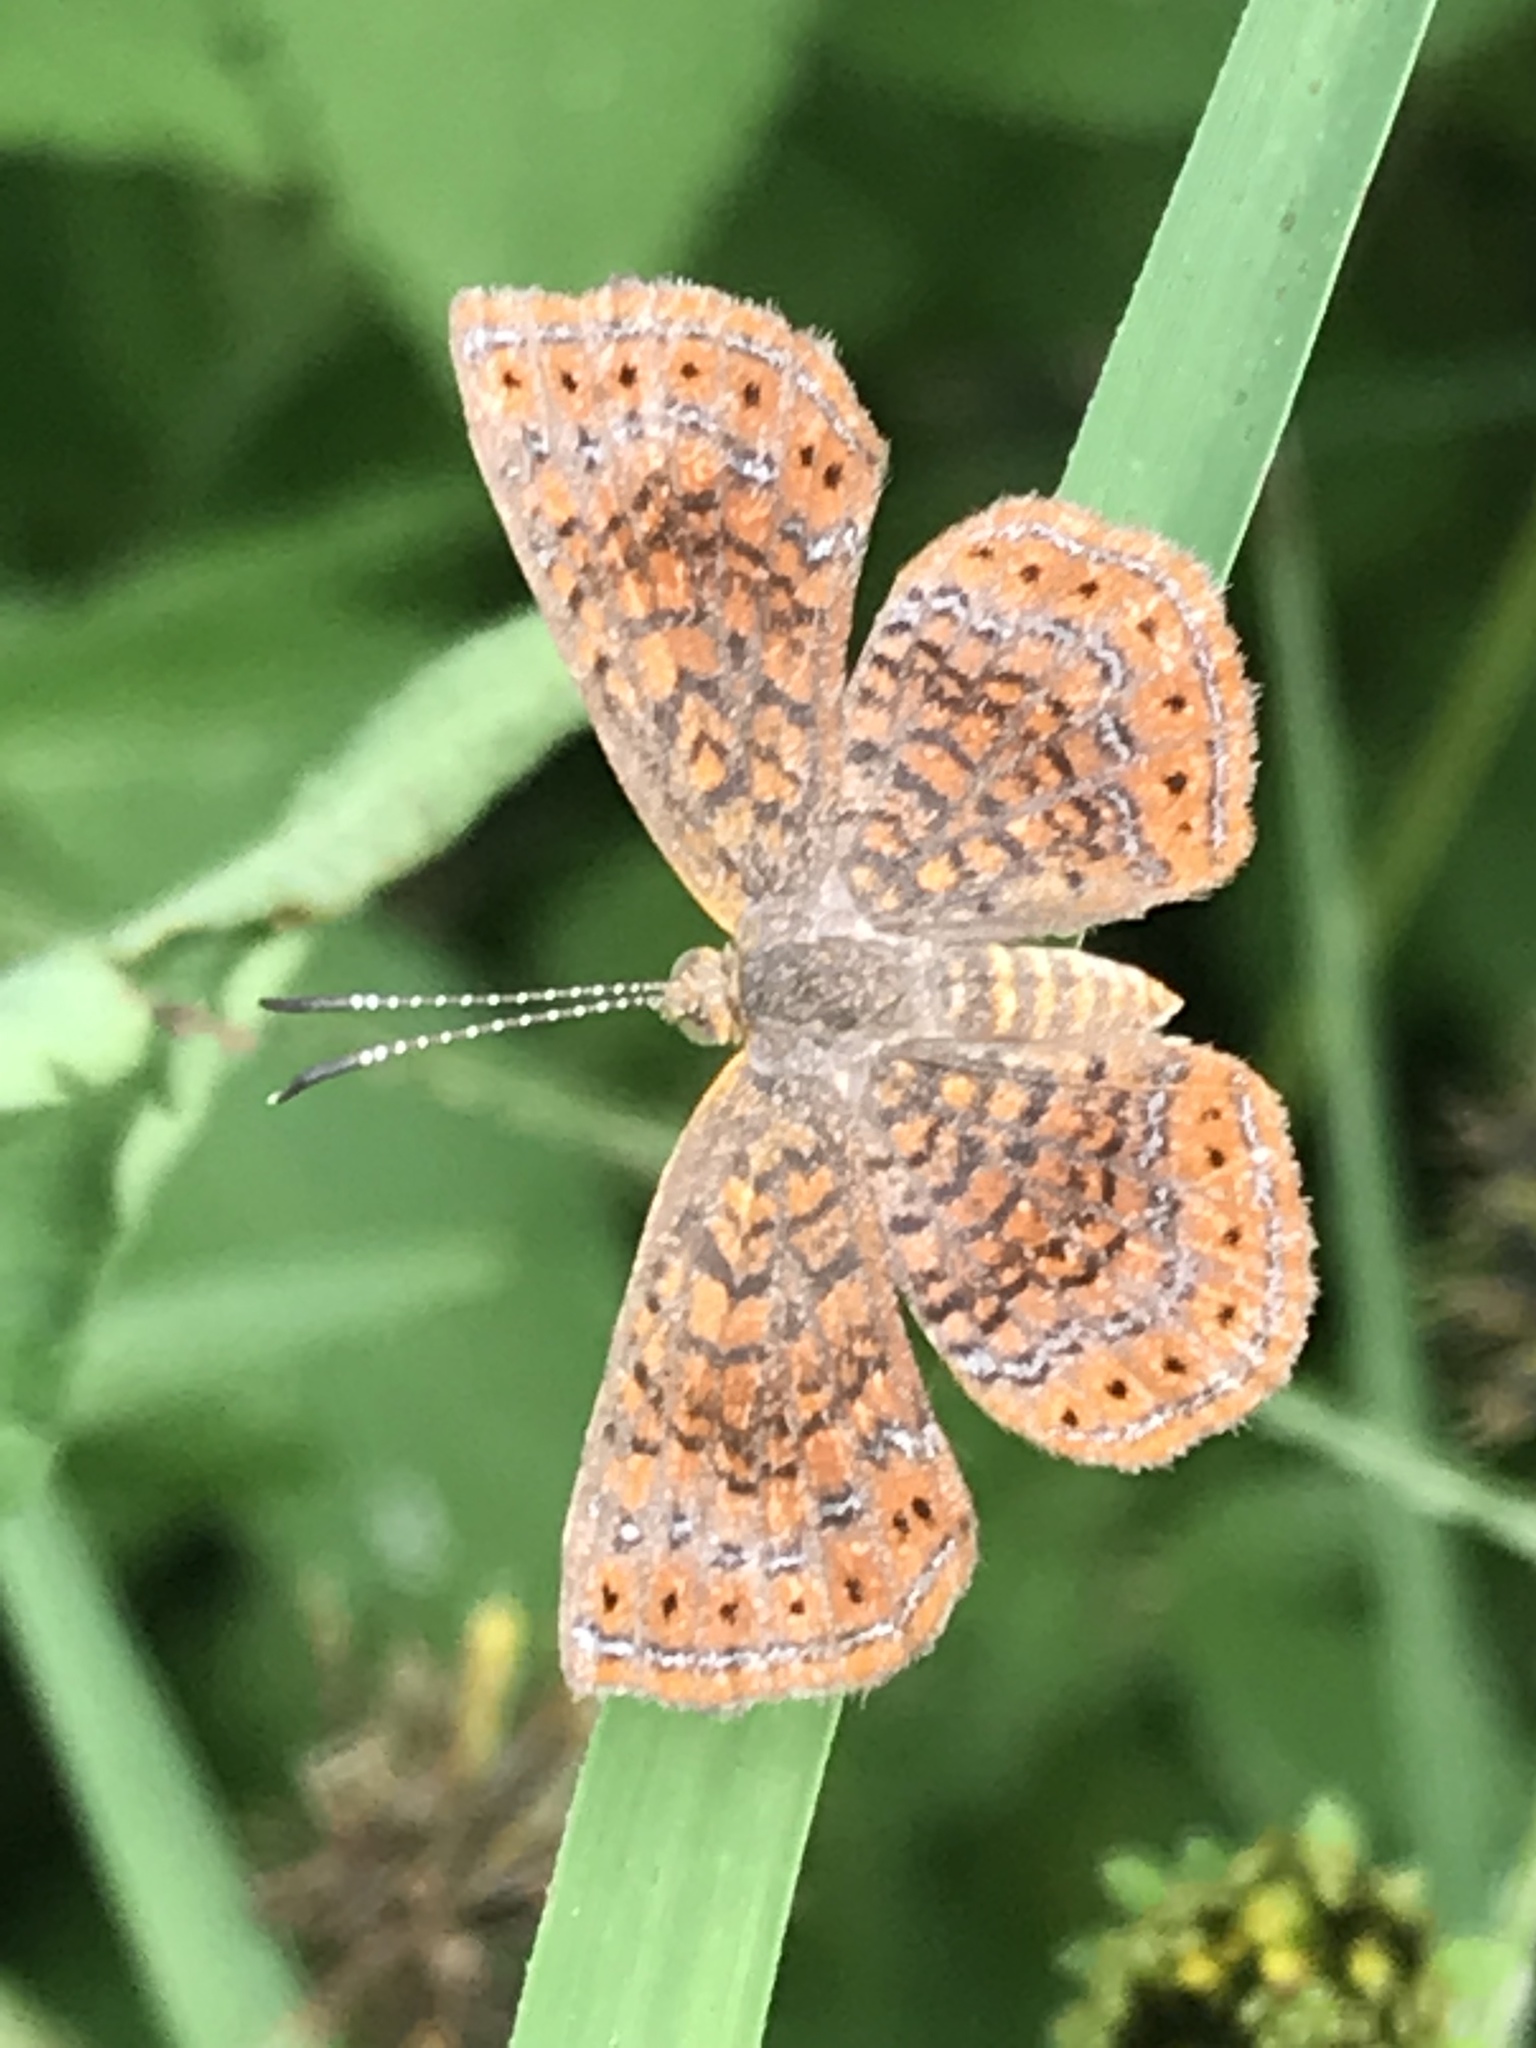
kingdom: Animalia
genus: Calephelis
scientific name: Calephelis perditalis
